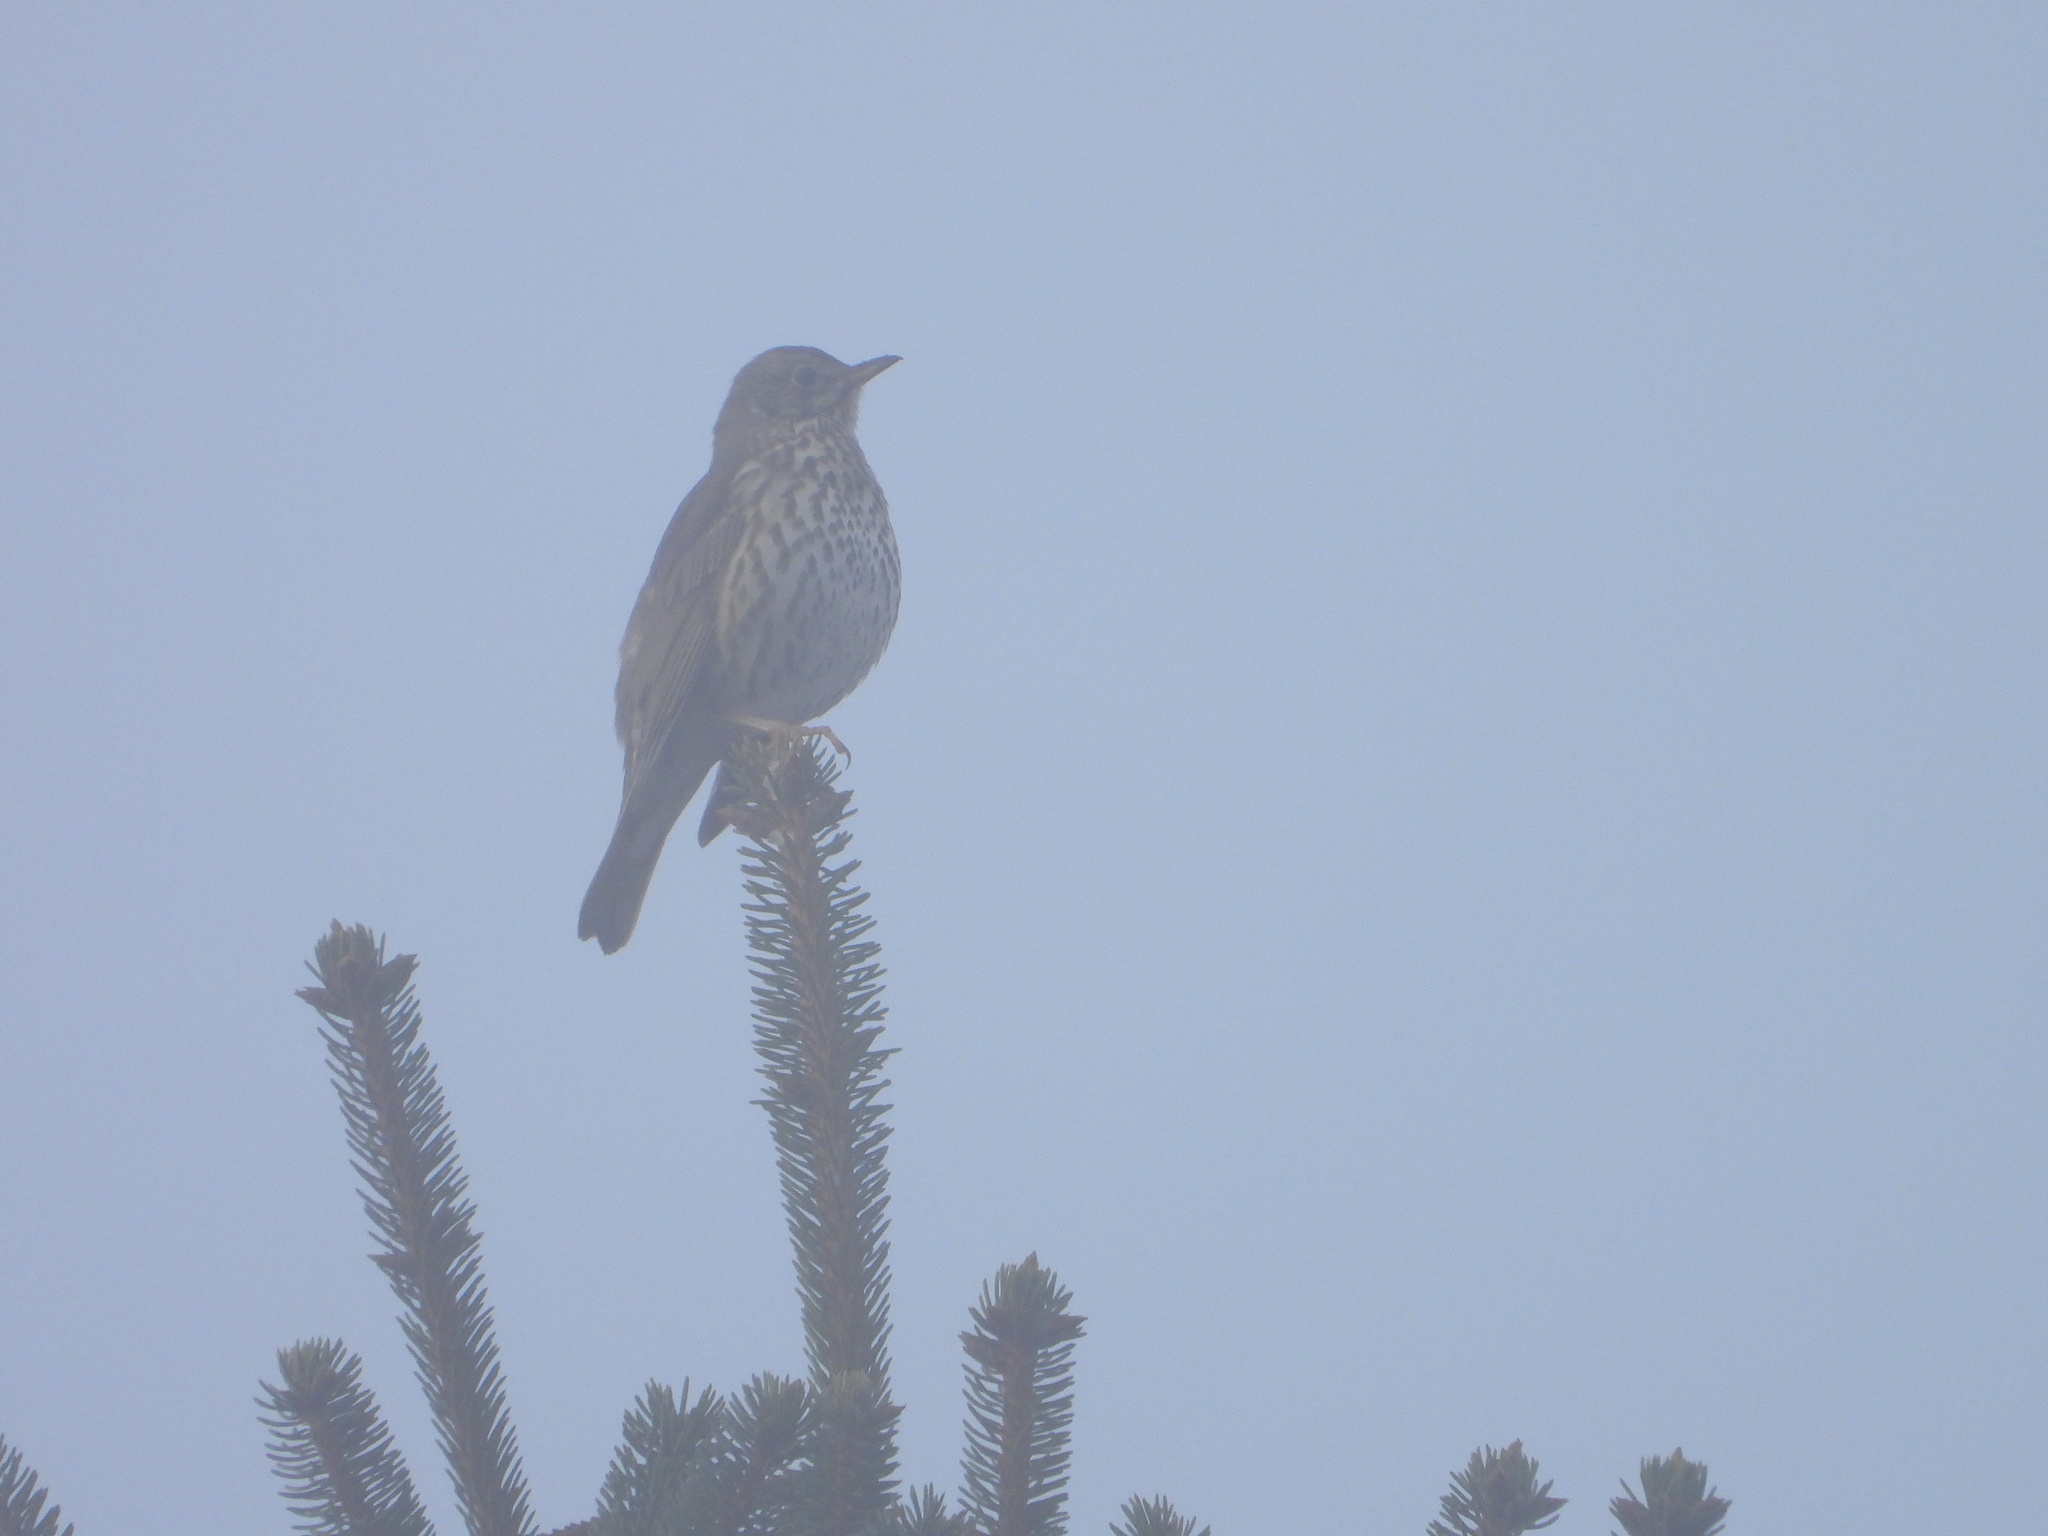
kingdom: Animalia
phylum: Chordata
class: Aves
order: Passeriformes
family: Turdidae
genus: Turdus
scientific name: Turdus philomelos
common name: Song thrush
